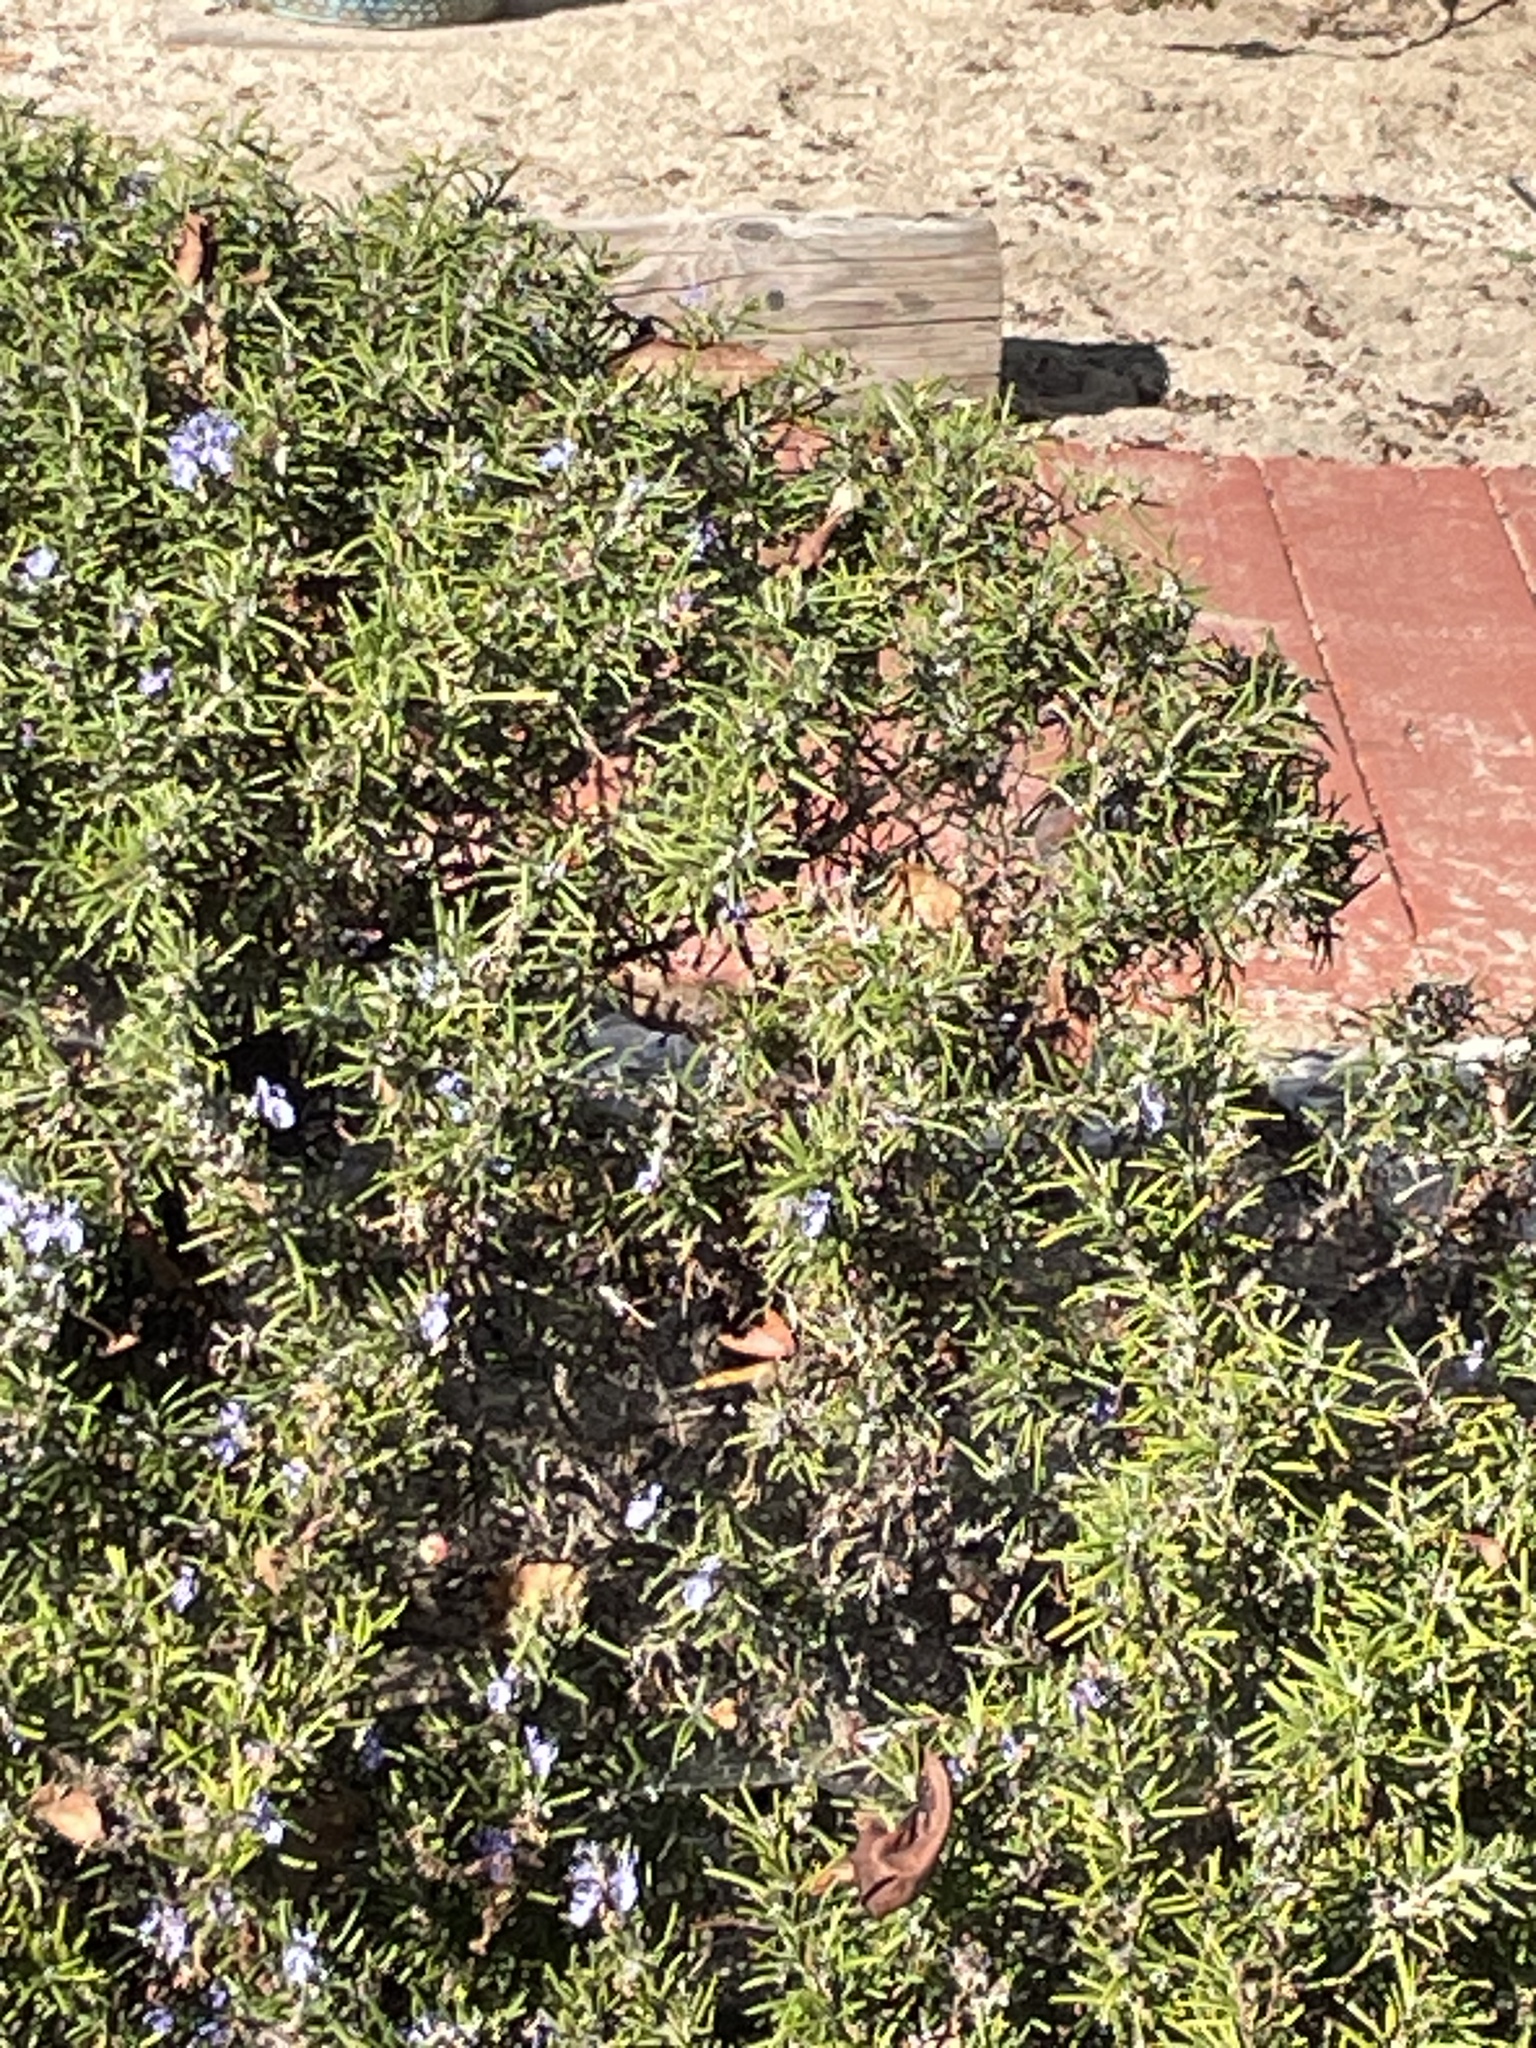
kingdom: Animalia
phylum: Arthropoda
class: Insecta
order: Lepidoptera
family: Nymphalidae
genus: Vanessa
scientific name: Vanessa annabella
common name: West coast lady
